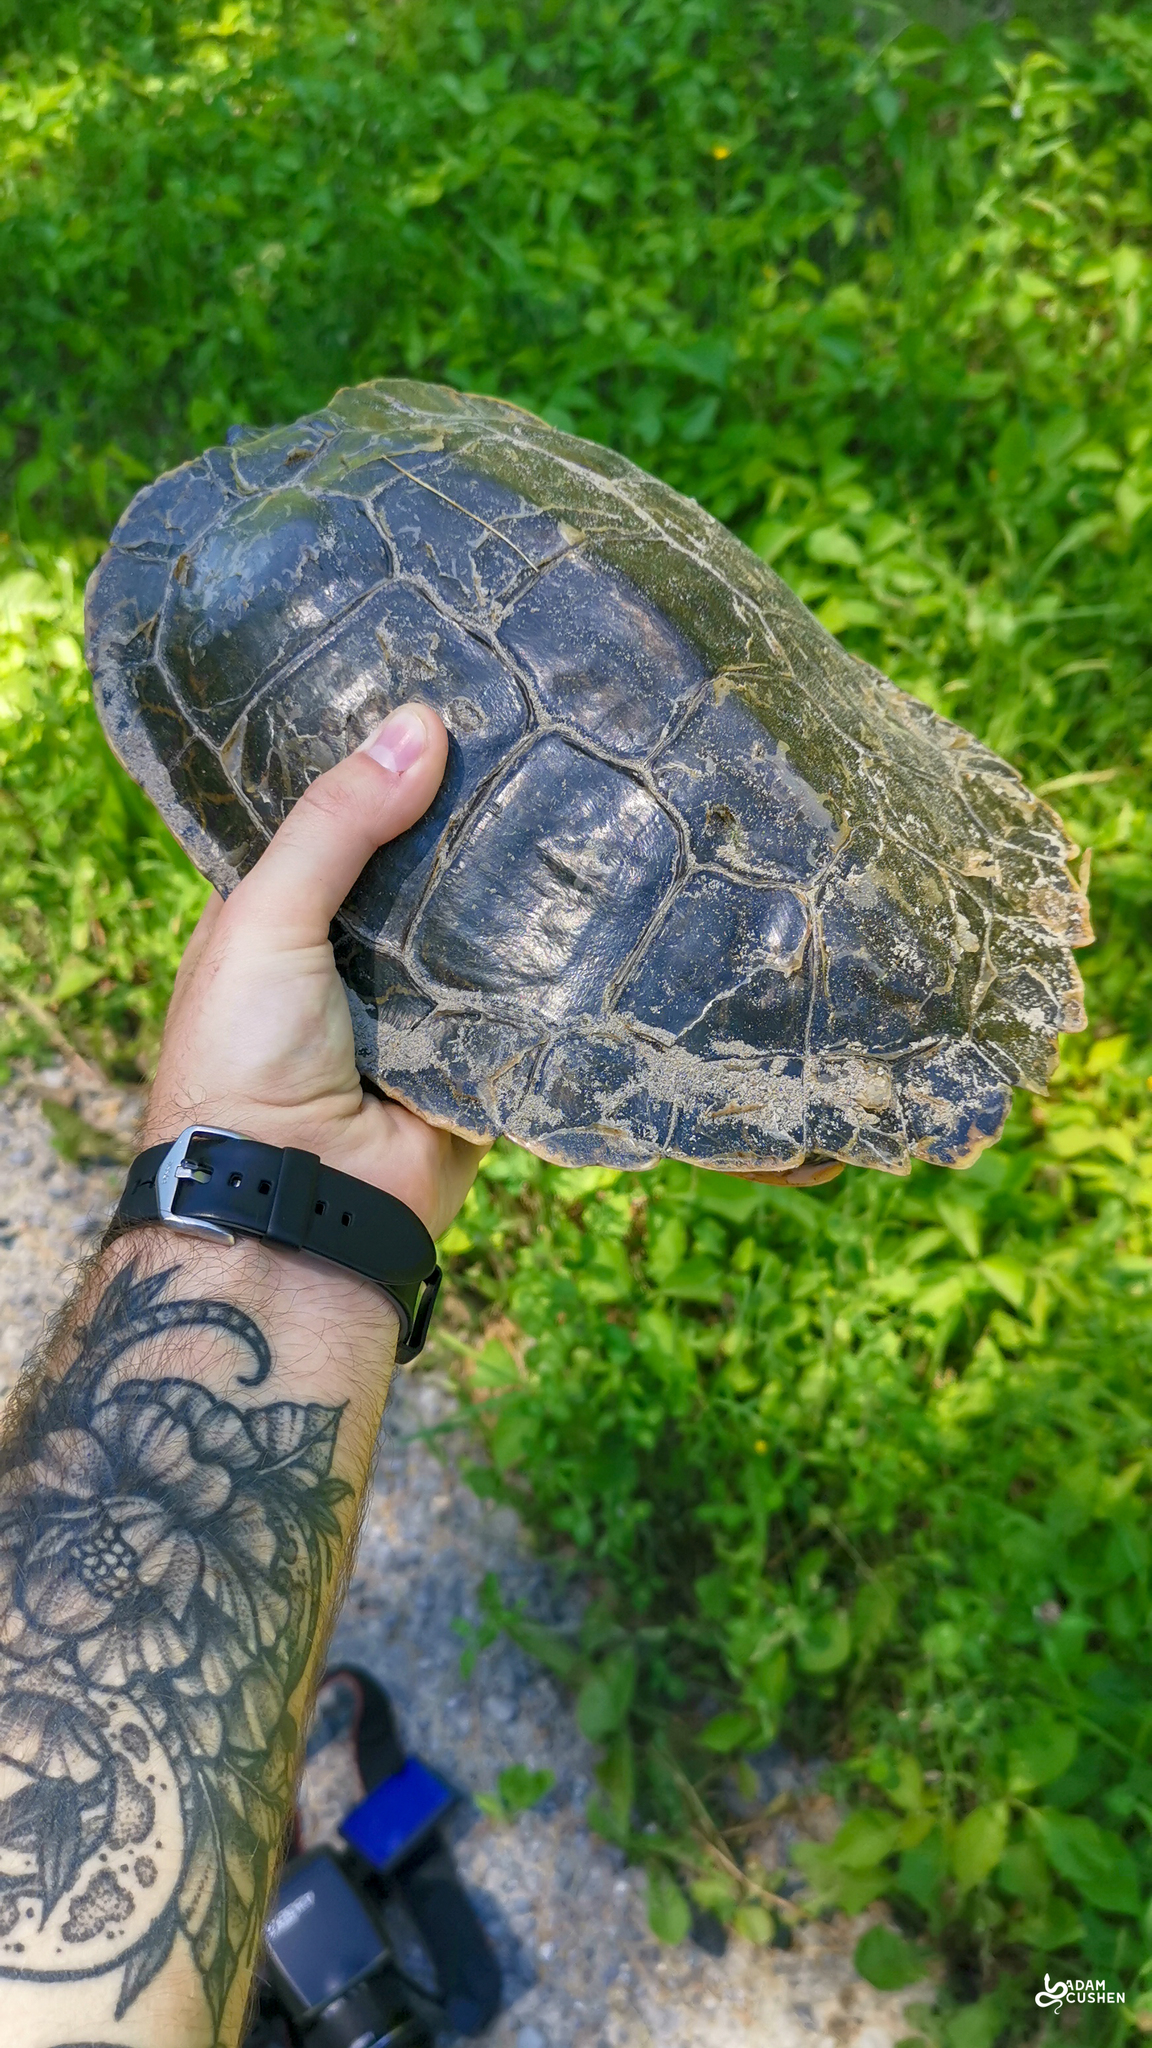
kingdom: Animalia
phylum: Chordata
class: Testudines
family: Emydidae
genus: Graptemys
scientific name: Graptemys geographica
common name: Common map turtle
